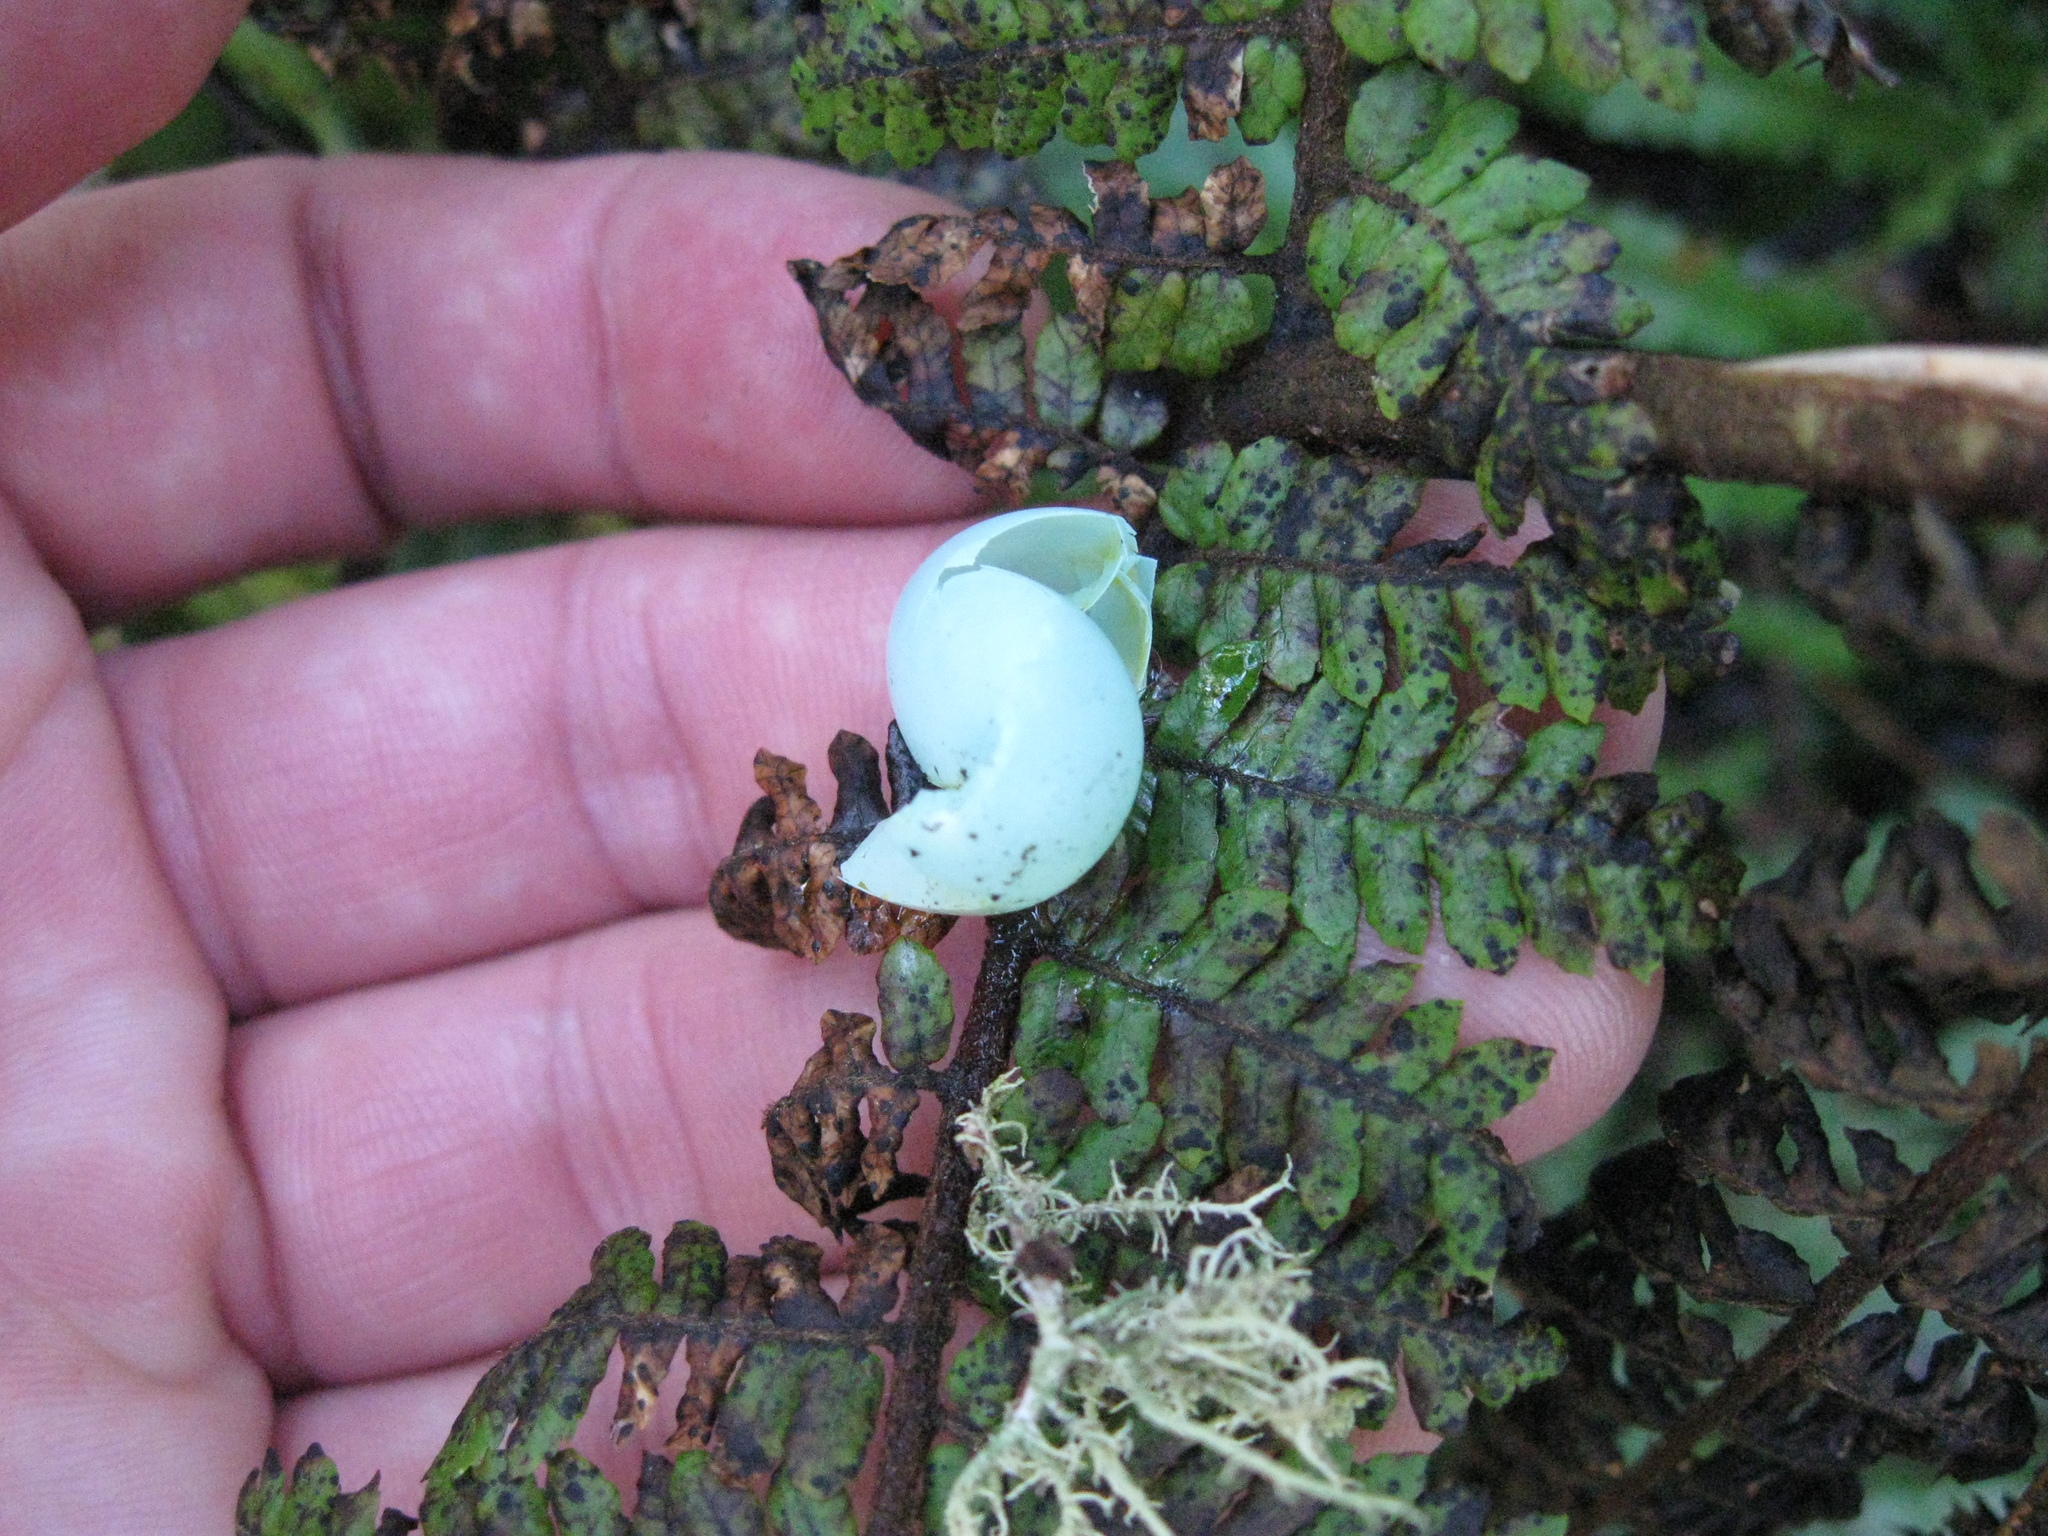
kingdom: Animalia
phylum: Chordata
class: Aves
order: Passeriformes
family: Prunellidae
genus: Prunella
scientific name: Prunella modularis
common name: Dunnock
